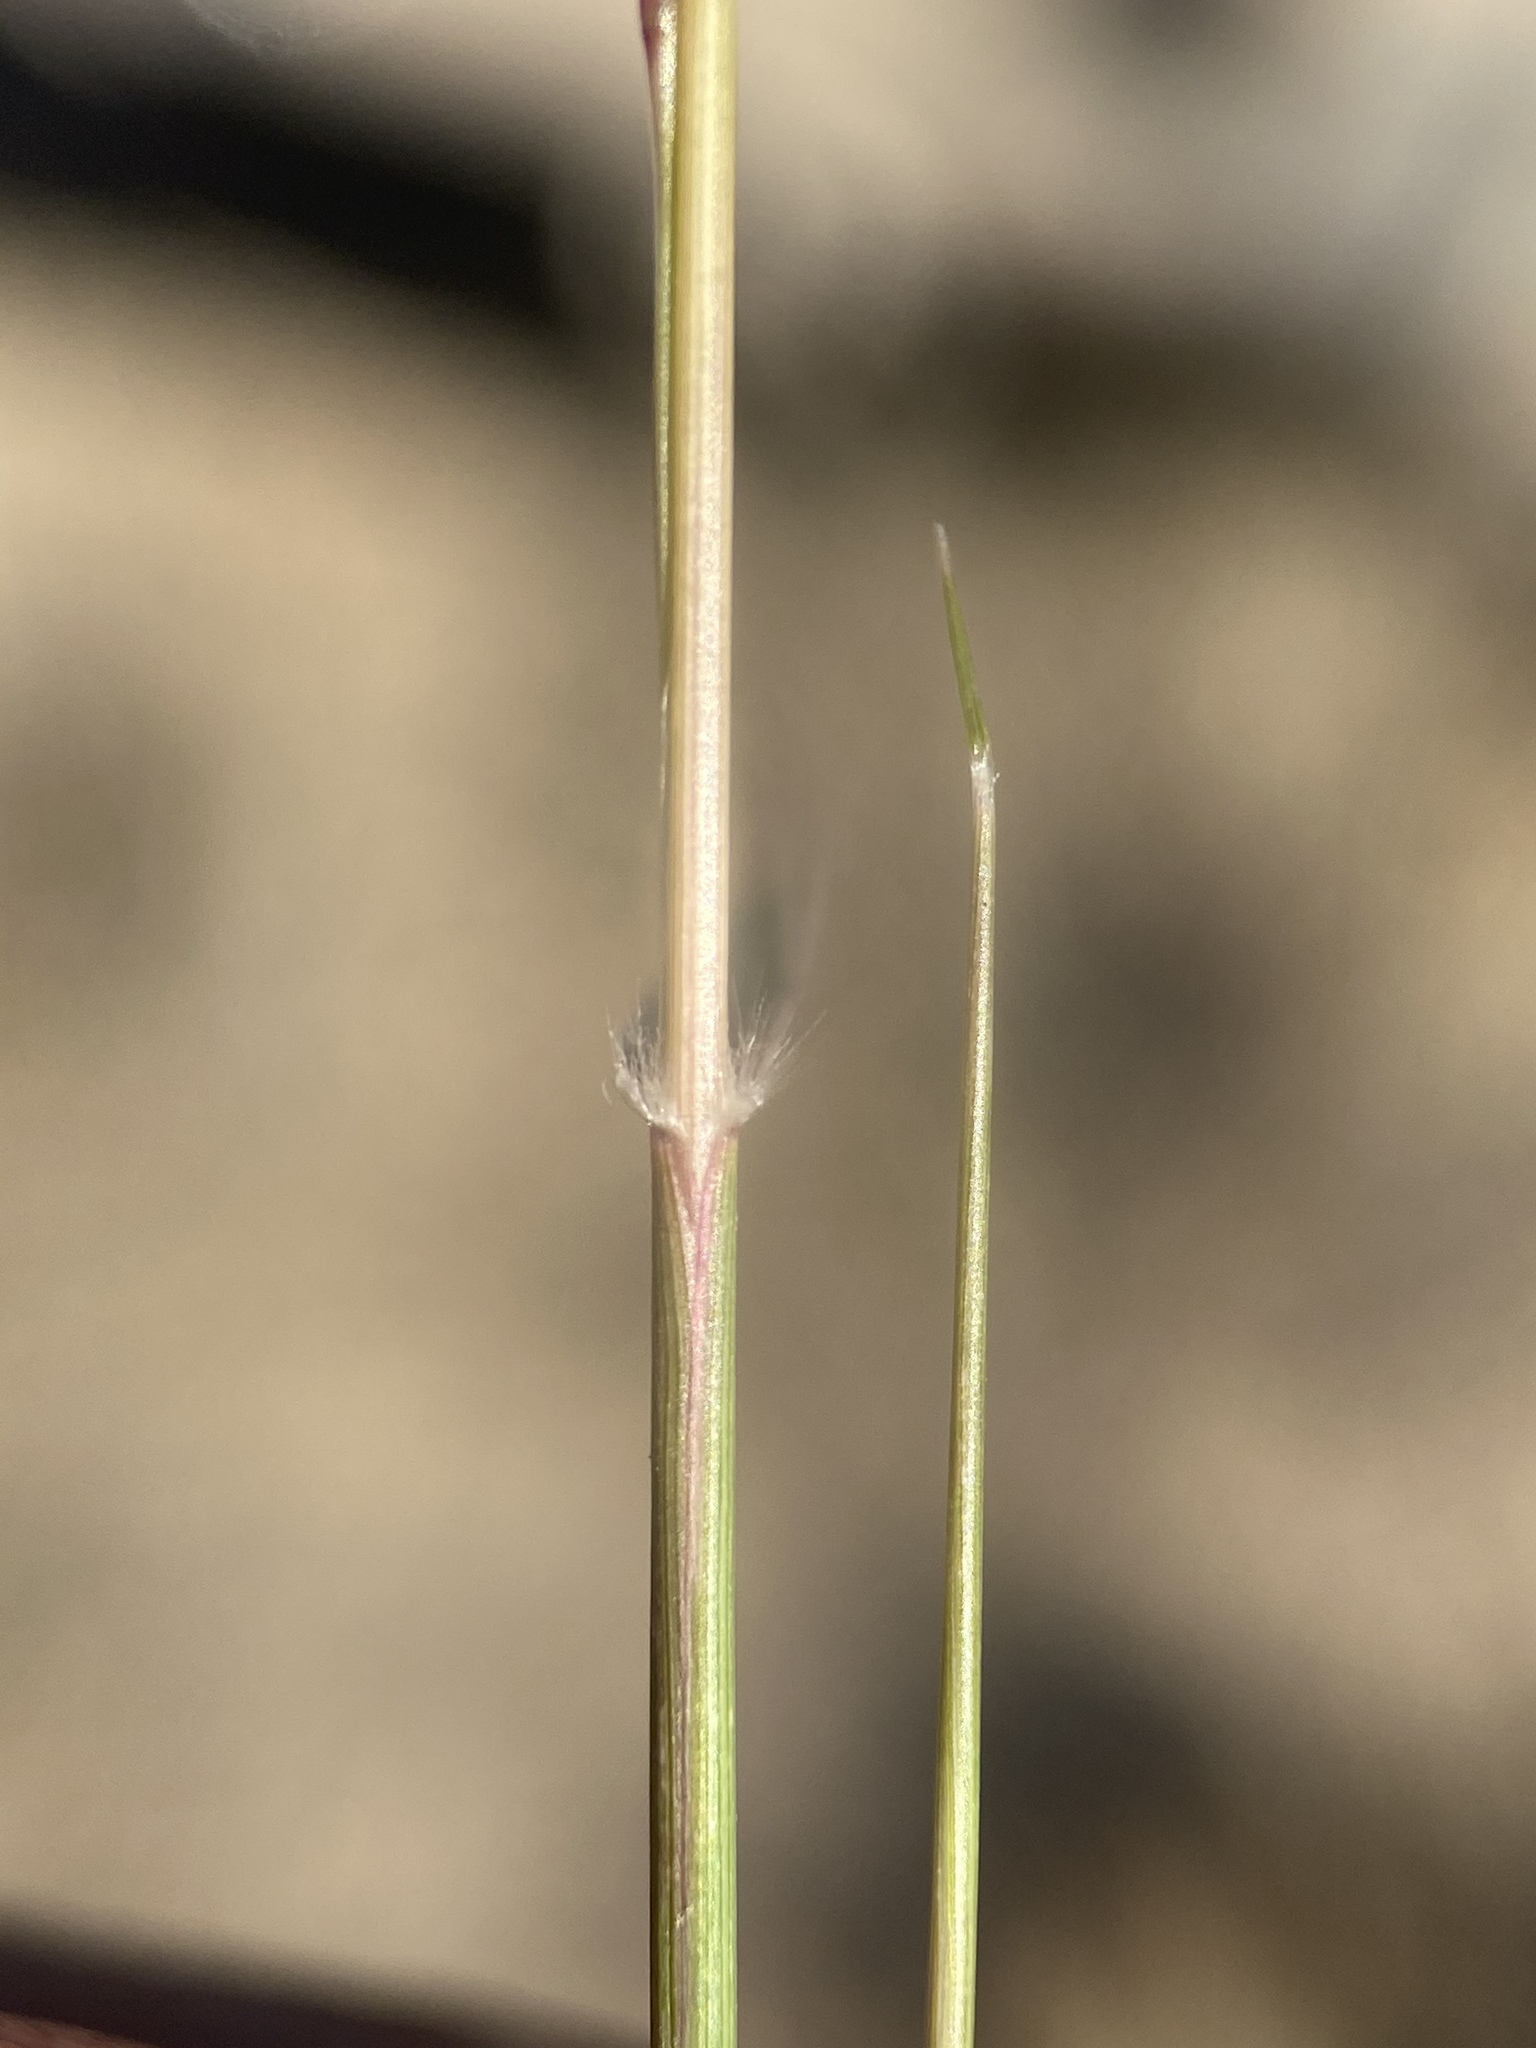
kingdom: Plantae
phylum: Tracheophyta
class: Liliopsida
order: Poales
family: Poaceae
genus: Sporobolus
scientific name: Sporobolus cryptandrus
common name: Sand dropseed
